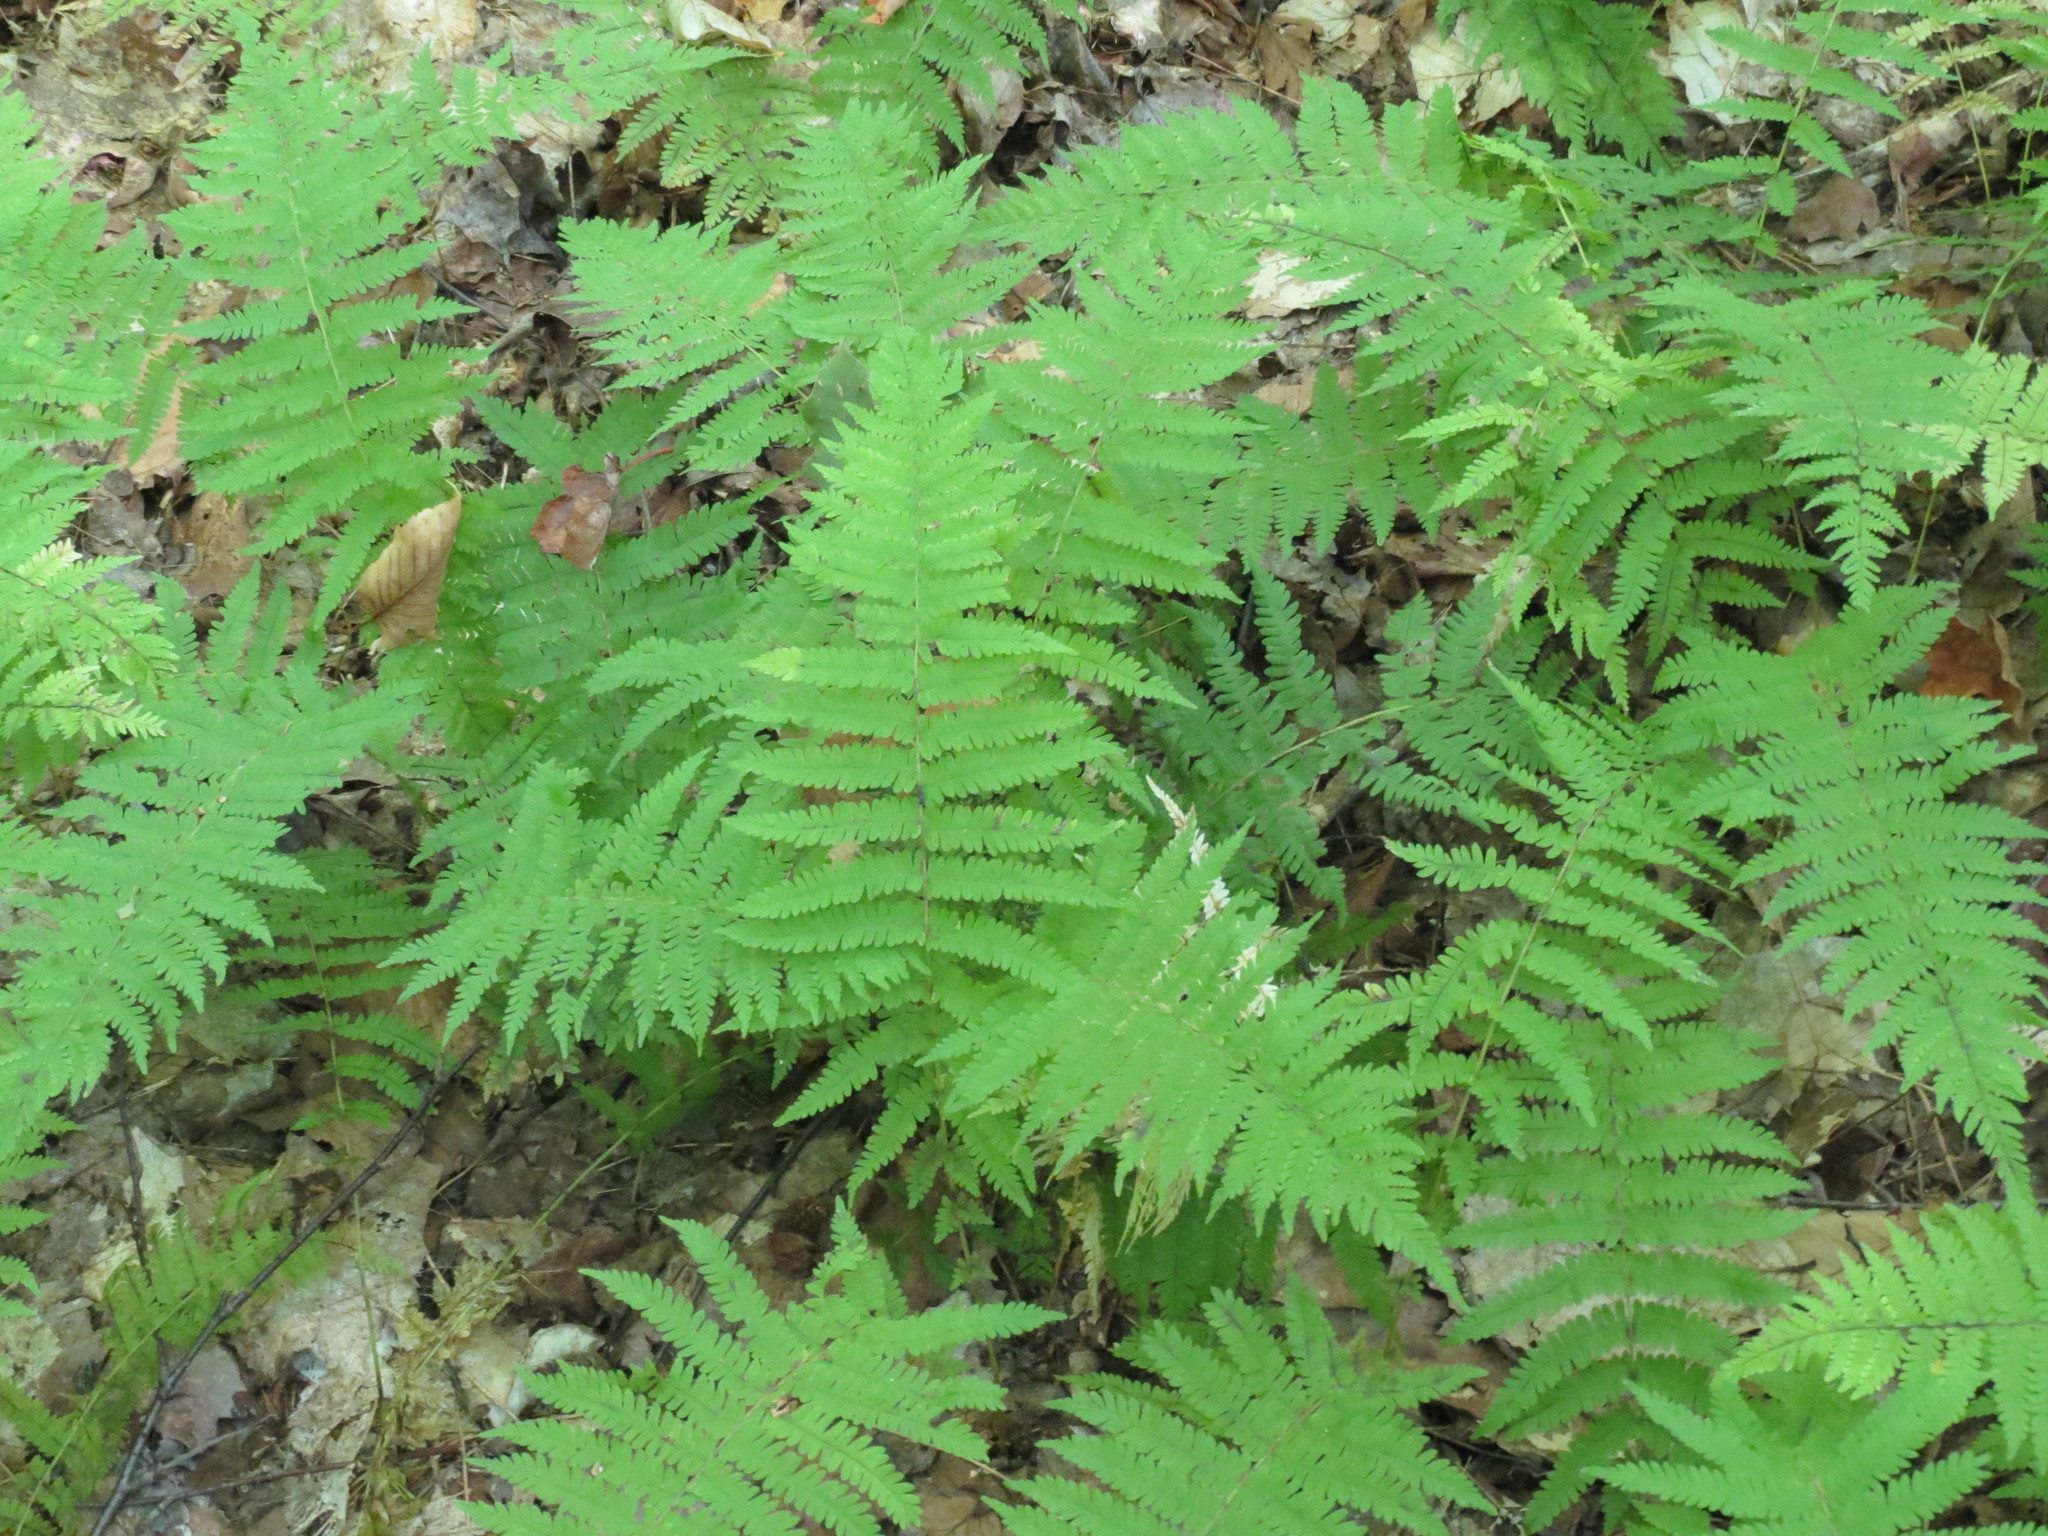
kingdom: Plantae
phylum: Tracheophyta
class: Polypodiopsida
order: Polypodiales
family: Thelypteridaceae
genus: Amauropelta
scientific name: Amauropelta noveboracensis
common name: New york fern
